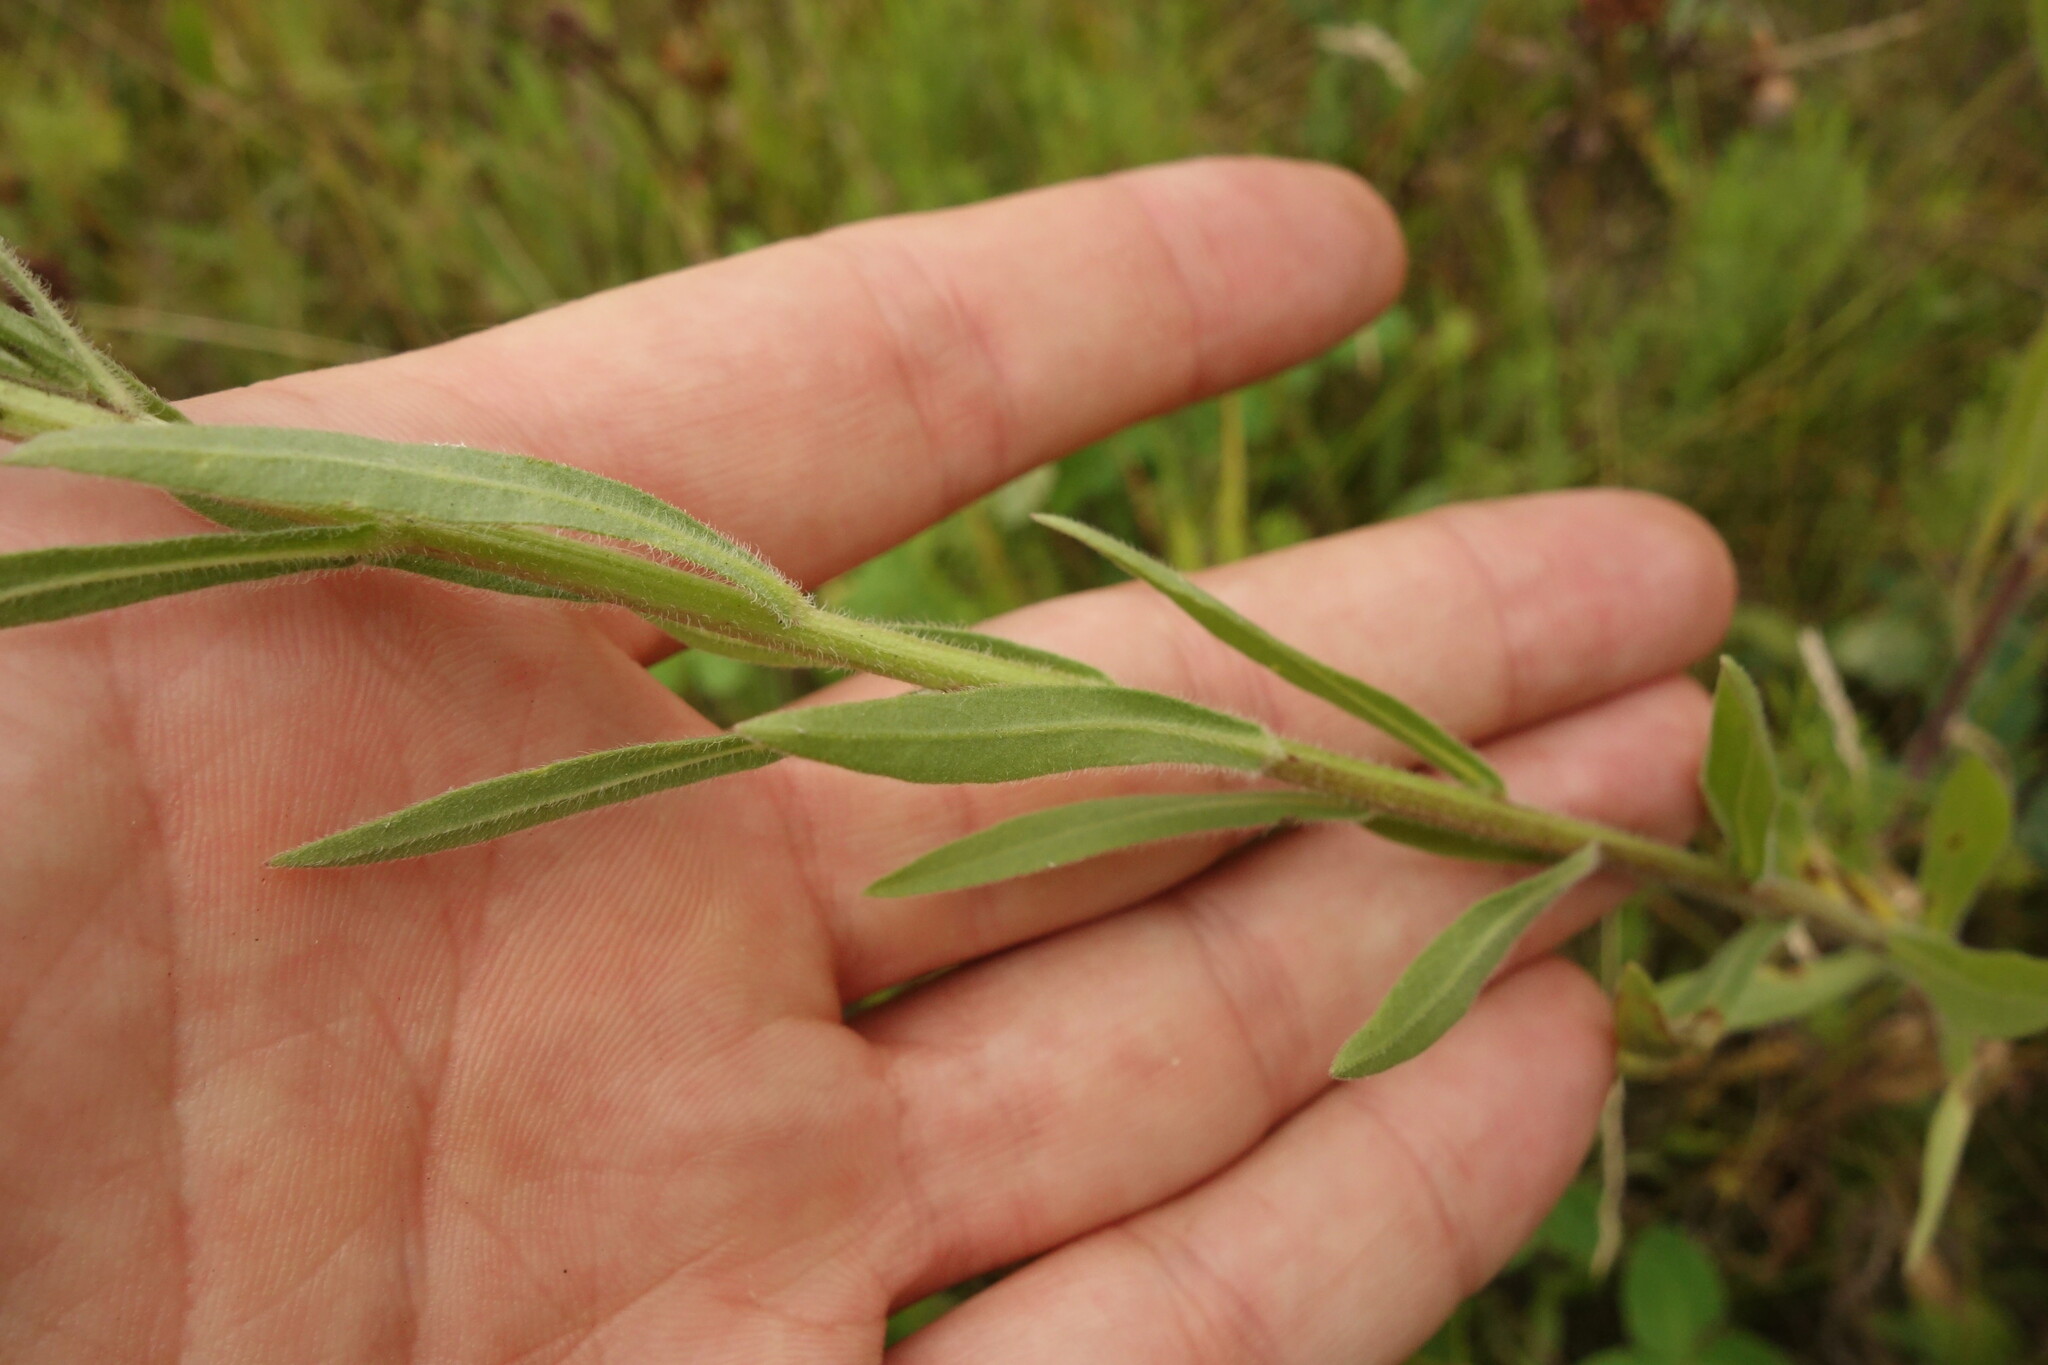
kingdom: Plantae
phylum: Tracheophyta
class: Magnoliopsida
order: Asterales
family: Asteraceae
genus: Erigeron
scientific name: Erigeron acris
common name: Blue fleabane
